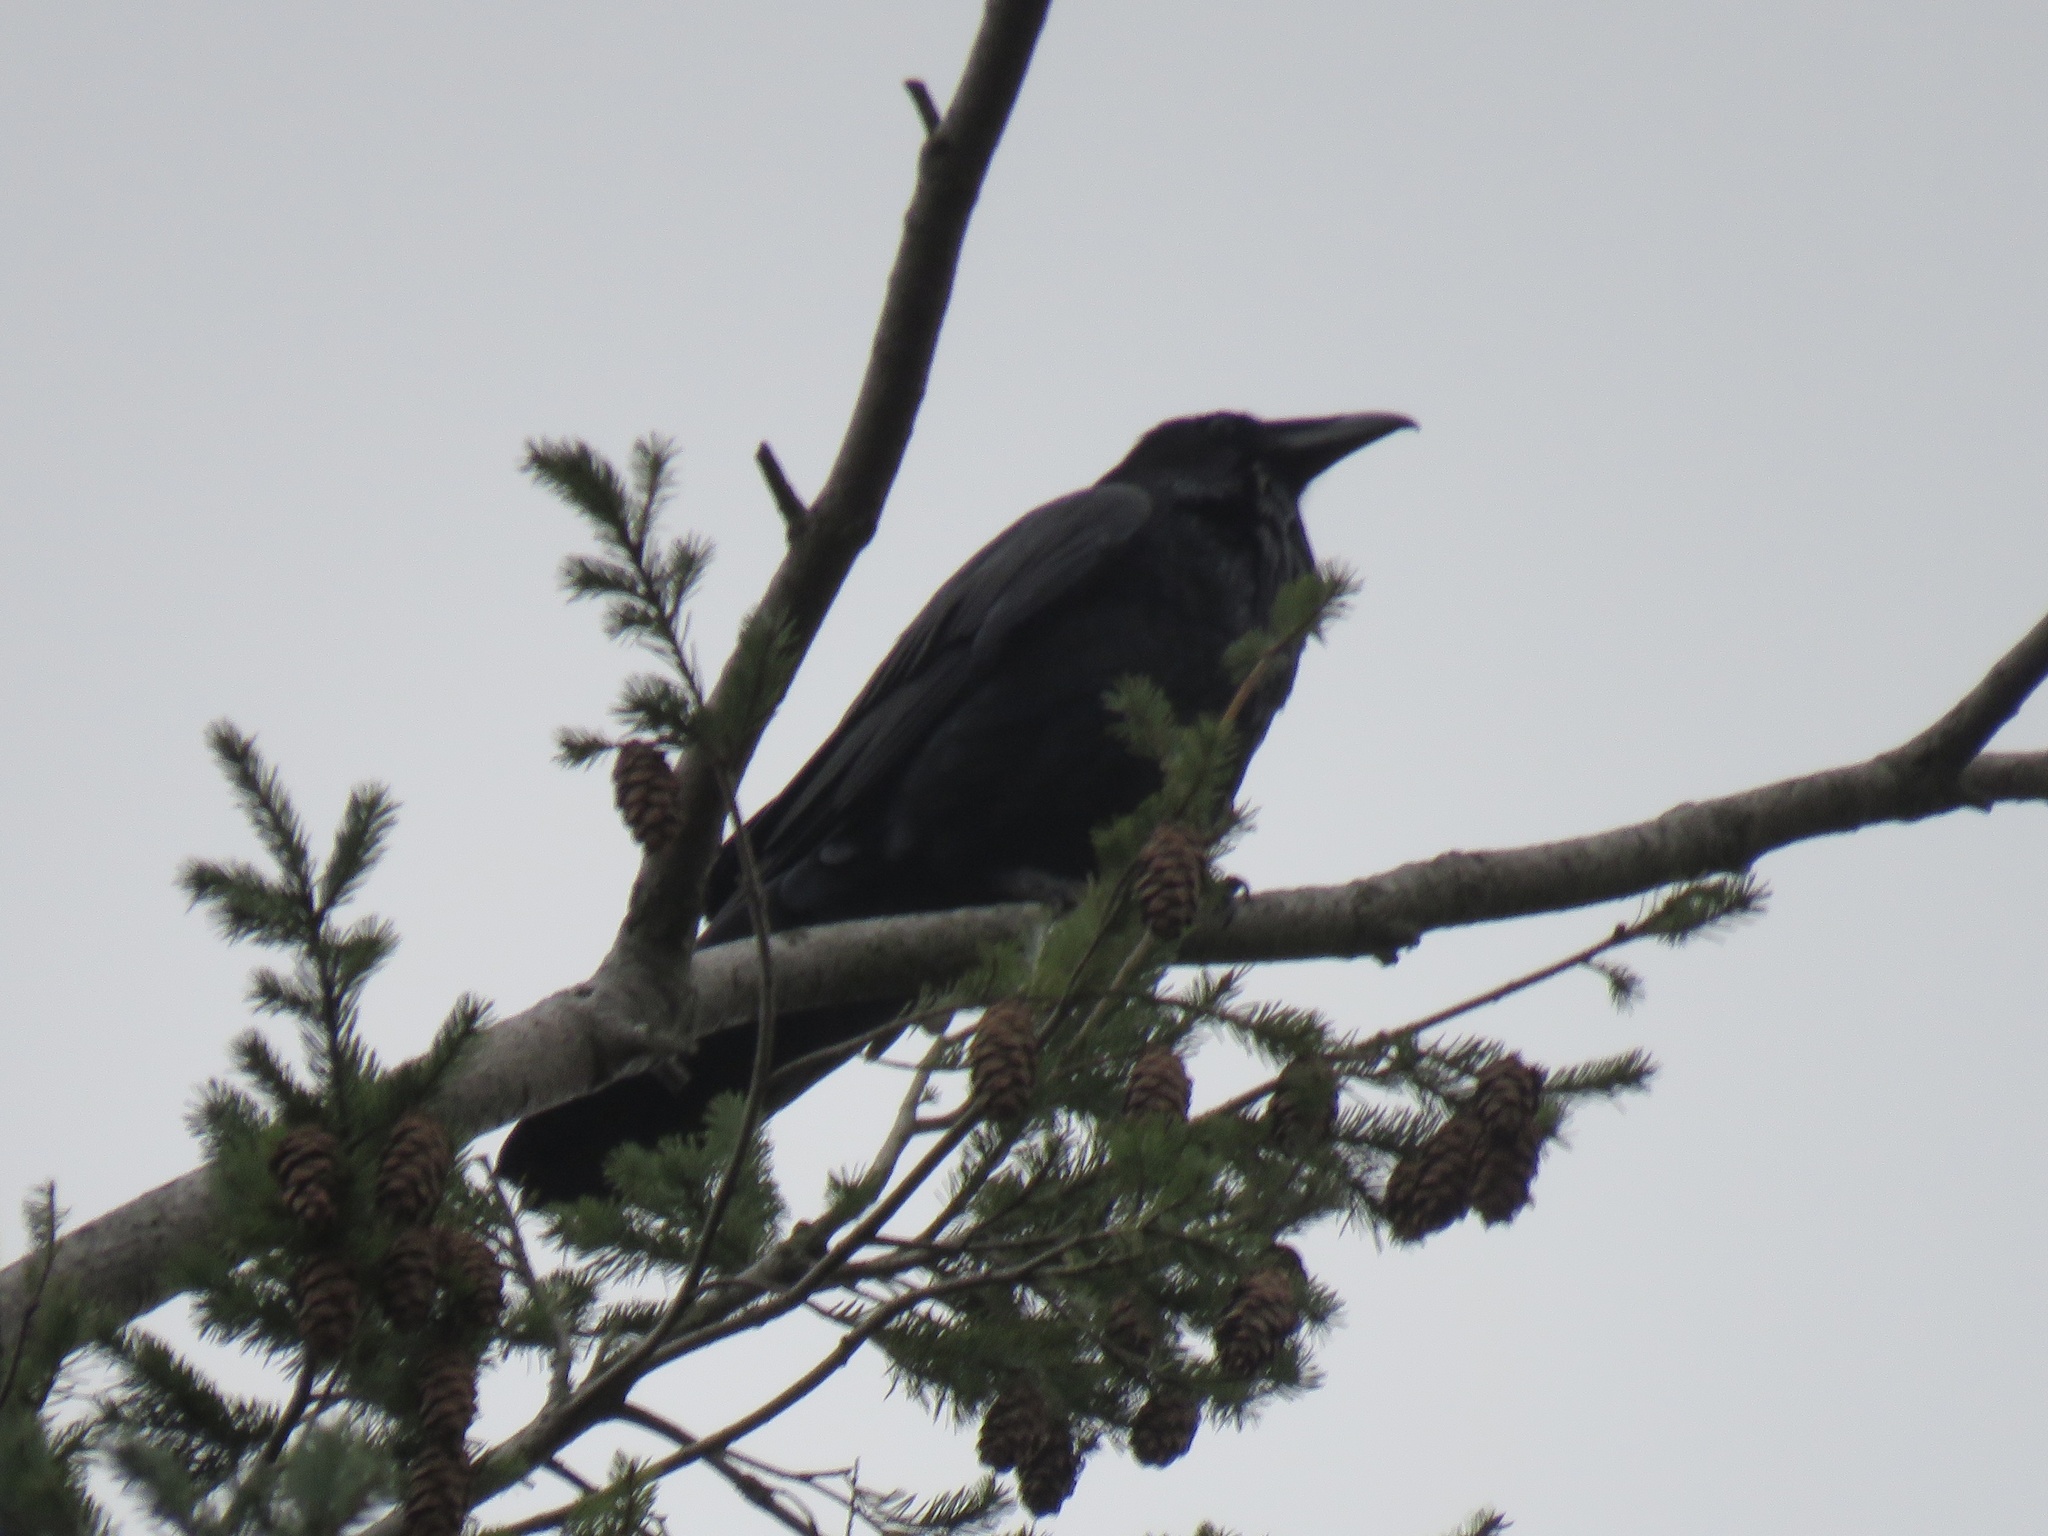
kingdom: Animalia
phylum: Chordata
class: Aves
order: Passeriformes
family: Corvidae
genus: Corvus
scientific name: Corvus corax
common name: Common raven
